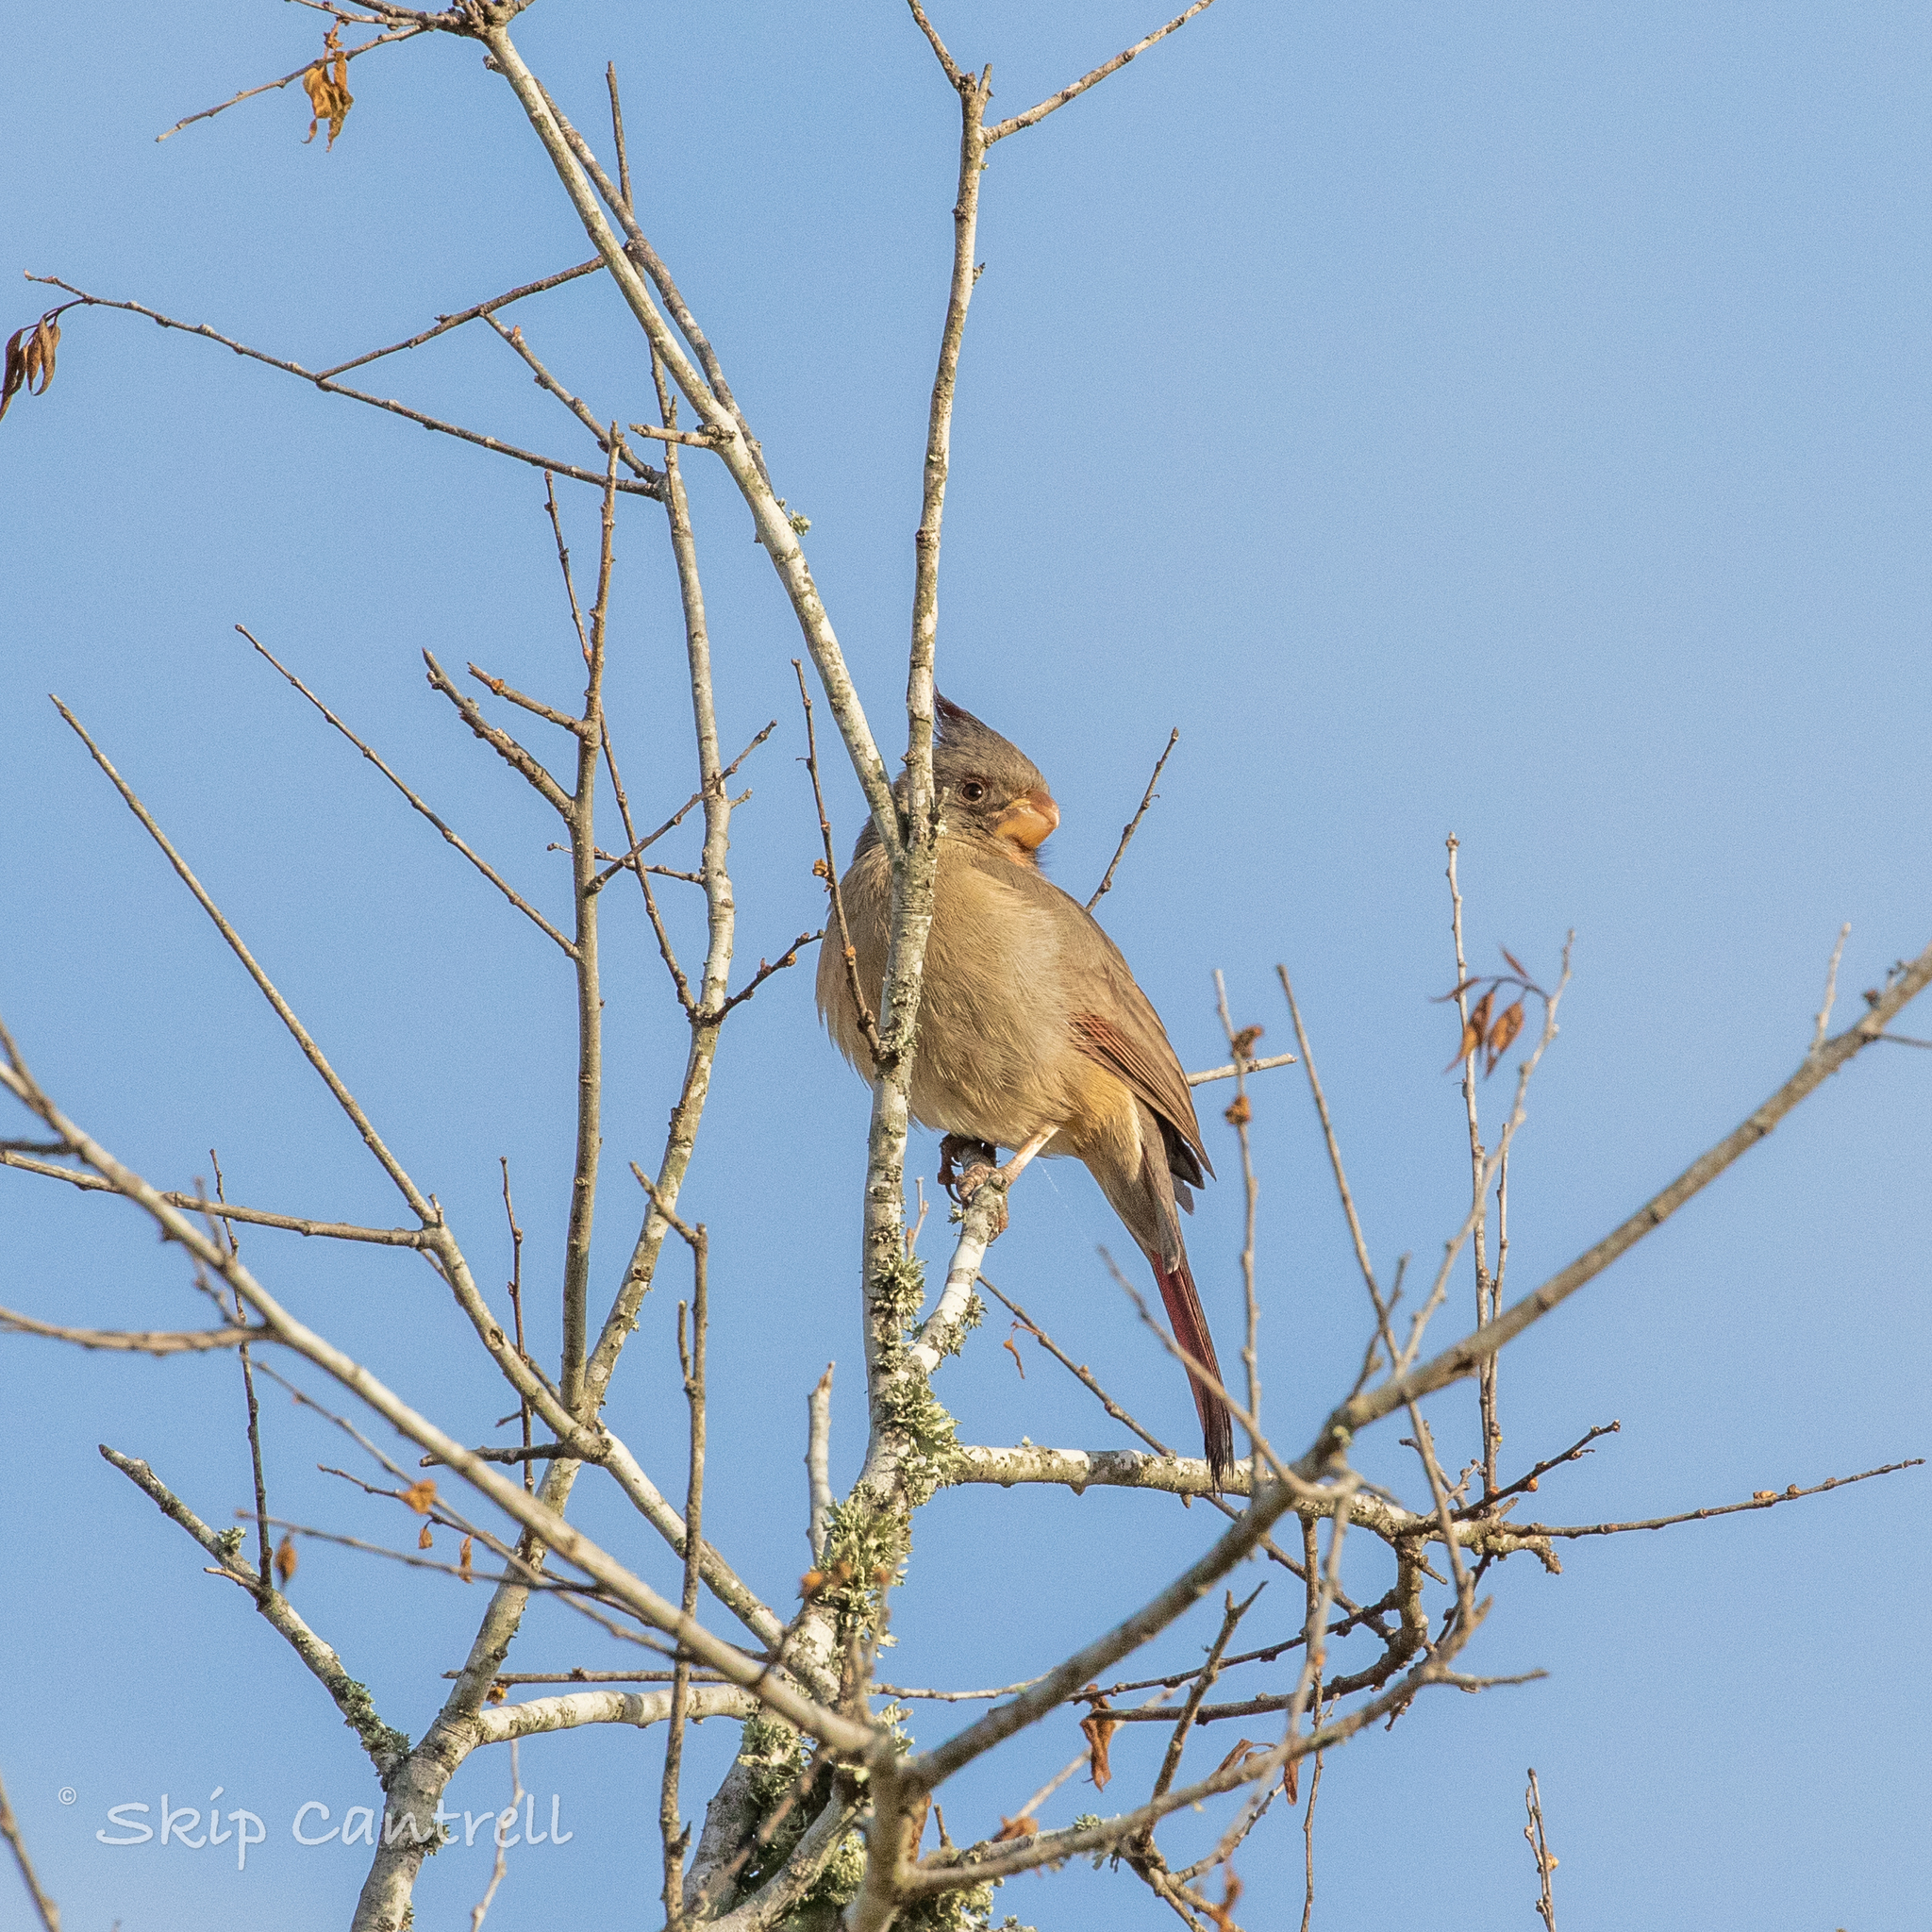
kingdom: Animalia
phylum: Chordata
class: Aves
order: Passeriformes
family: Cardinalidae
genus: Cardinalis
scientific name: Cardinalis sinuatus
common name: Pyrrhuloxia
